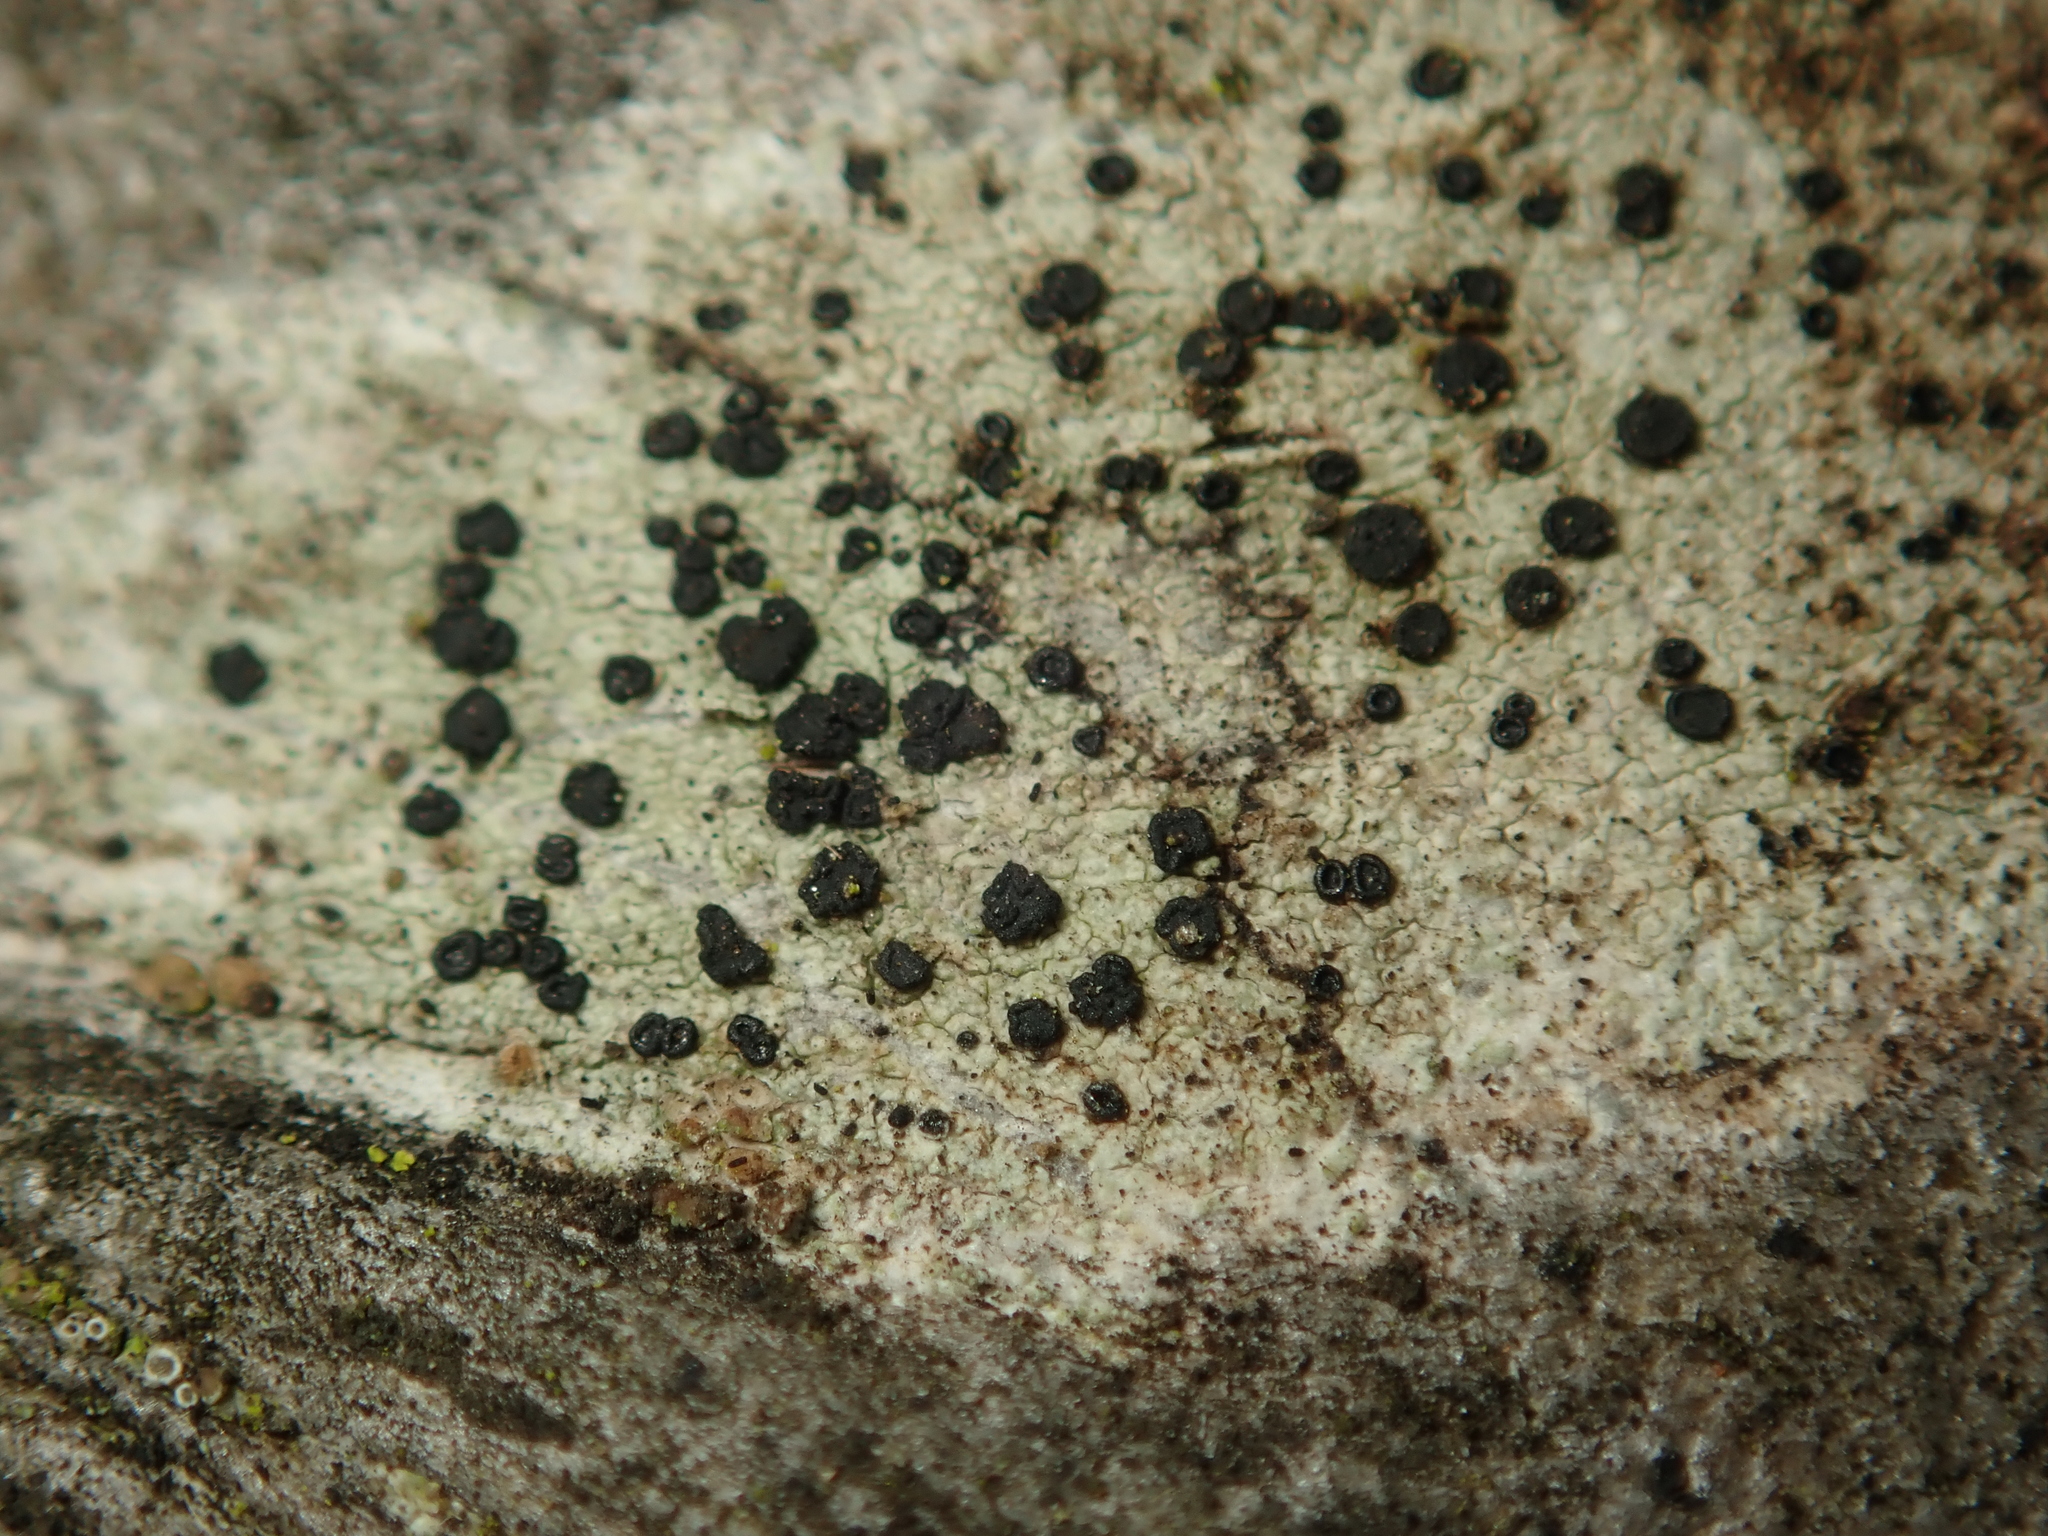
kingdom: Fungi
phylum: Ascomycota
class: Lecanoromycetes
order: Lecanorales
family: Lecanoraceae
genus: Lecidella
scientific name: Lecidella elaeochroma
